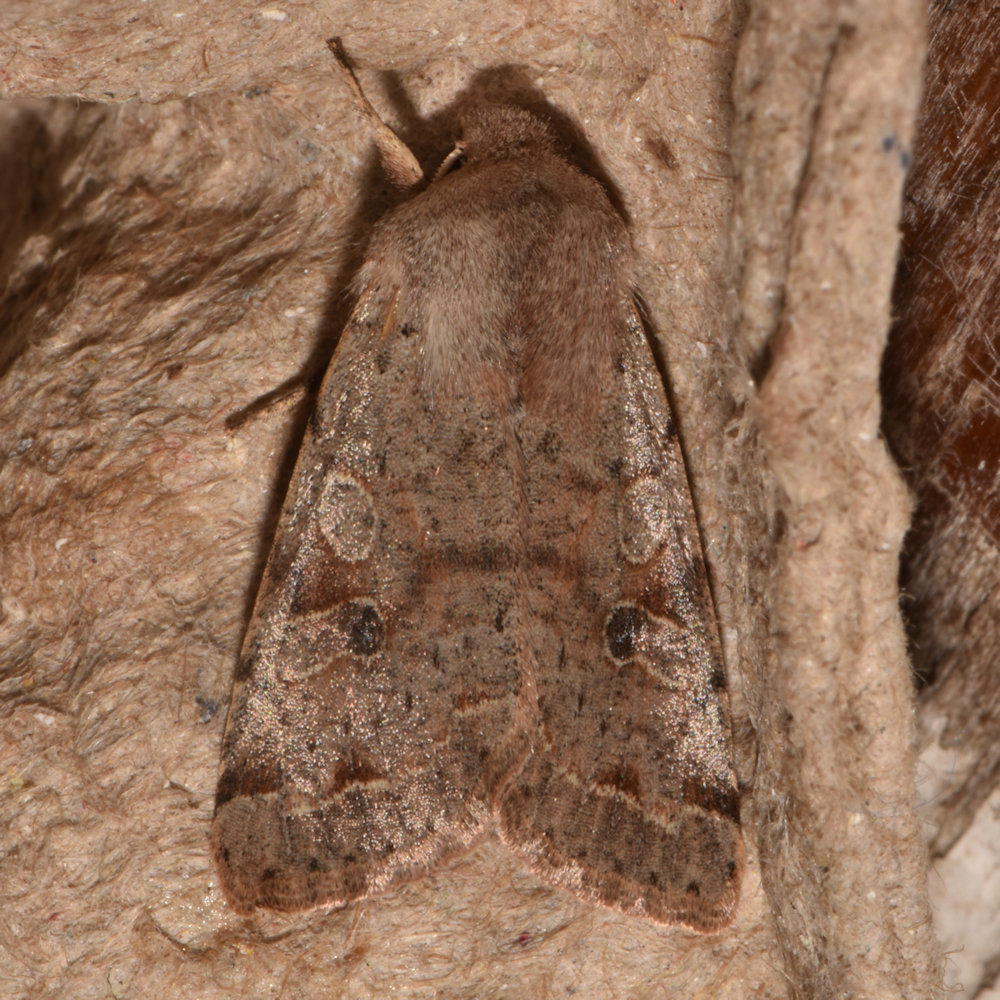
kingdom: Animalia
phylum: Arthropoda
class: Insecta
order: Lepidoptera
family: Noctuidae
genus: Orthosia
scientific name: Orthosia hibisci
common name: Green fruitworm
